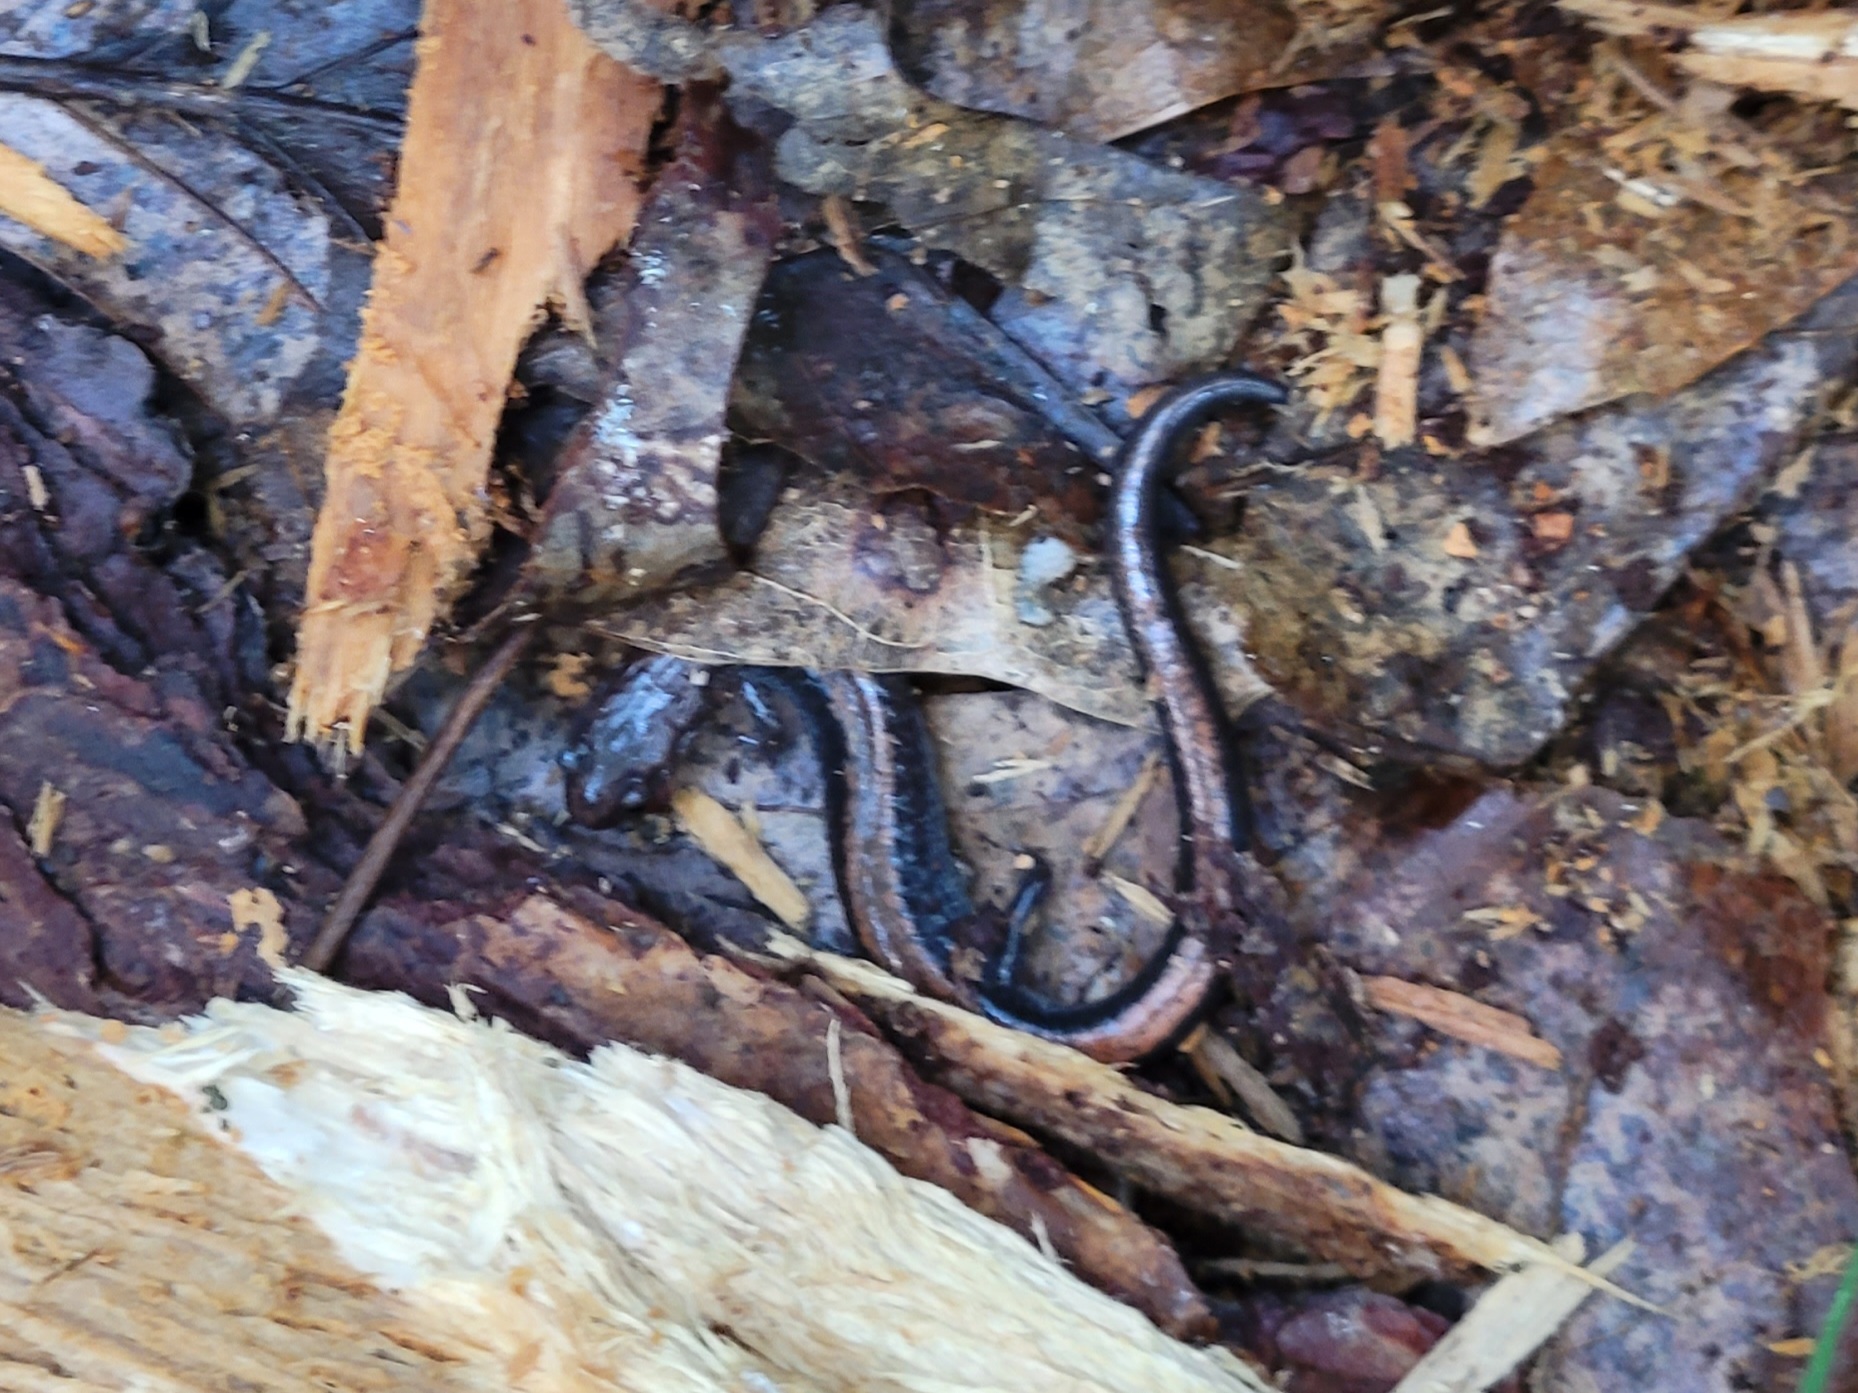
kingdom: Animalia
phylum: Chordata
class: Amphibia
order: Caudata
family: Plethodontidae
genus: Plethodon
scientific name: Plethodon cinereus
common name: Redback salamander
